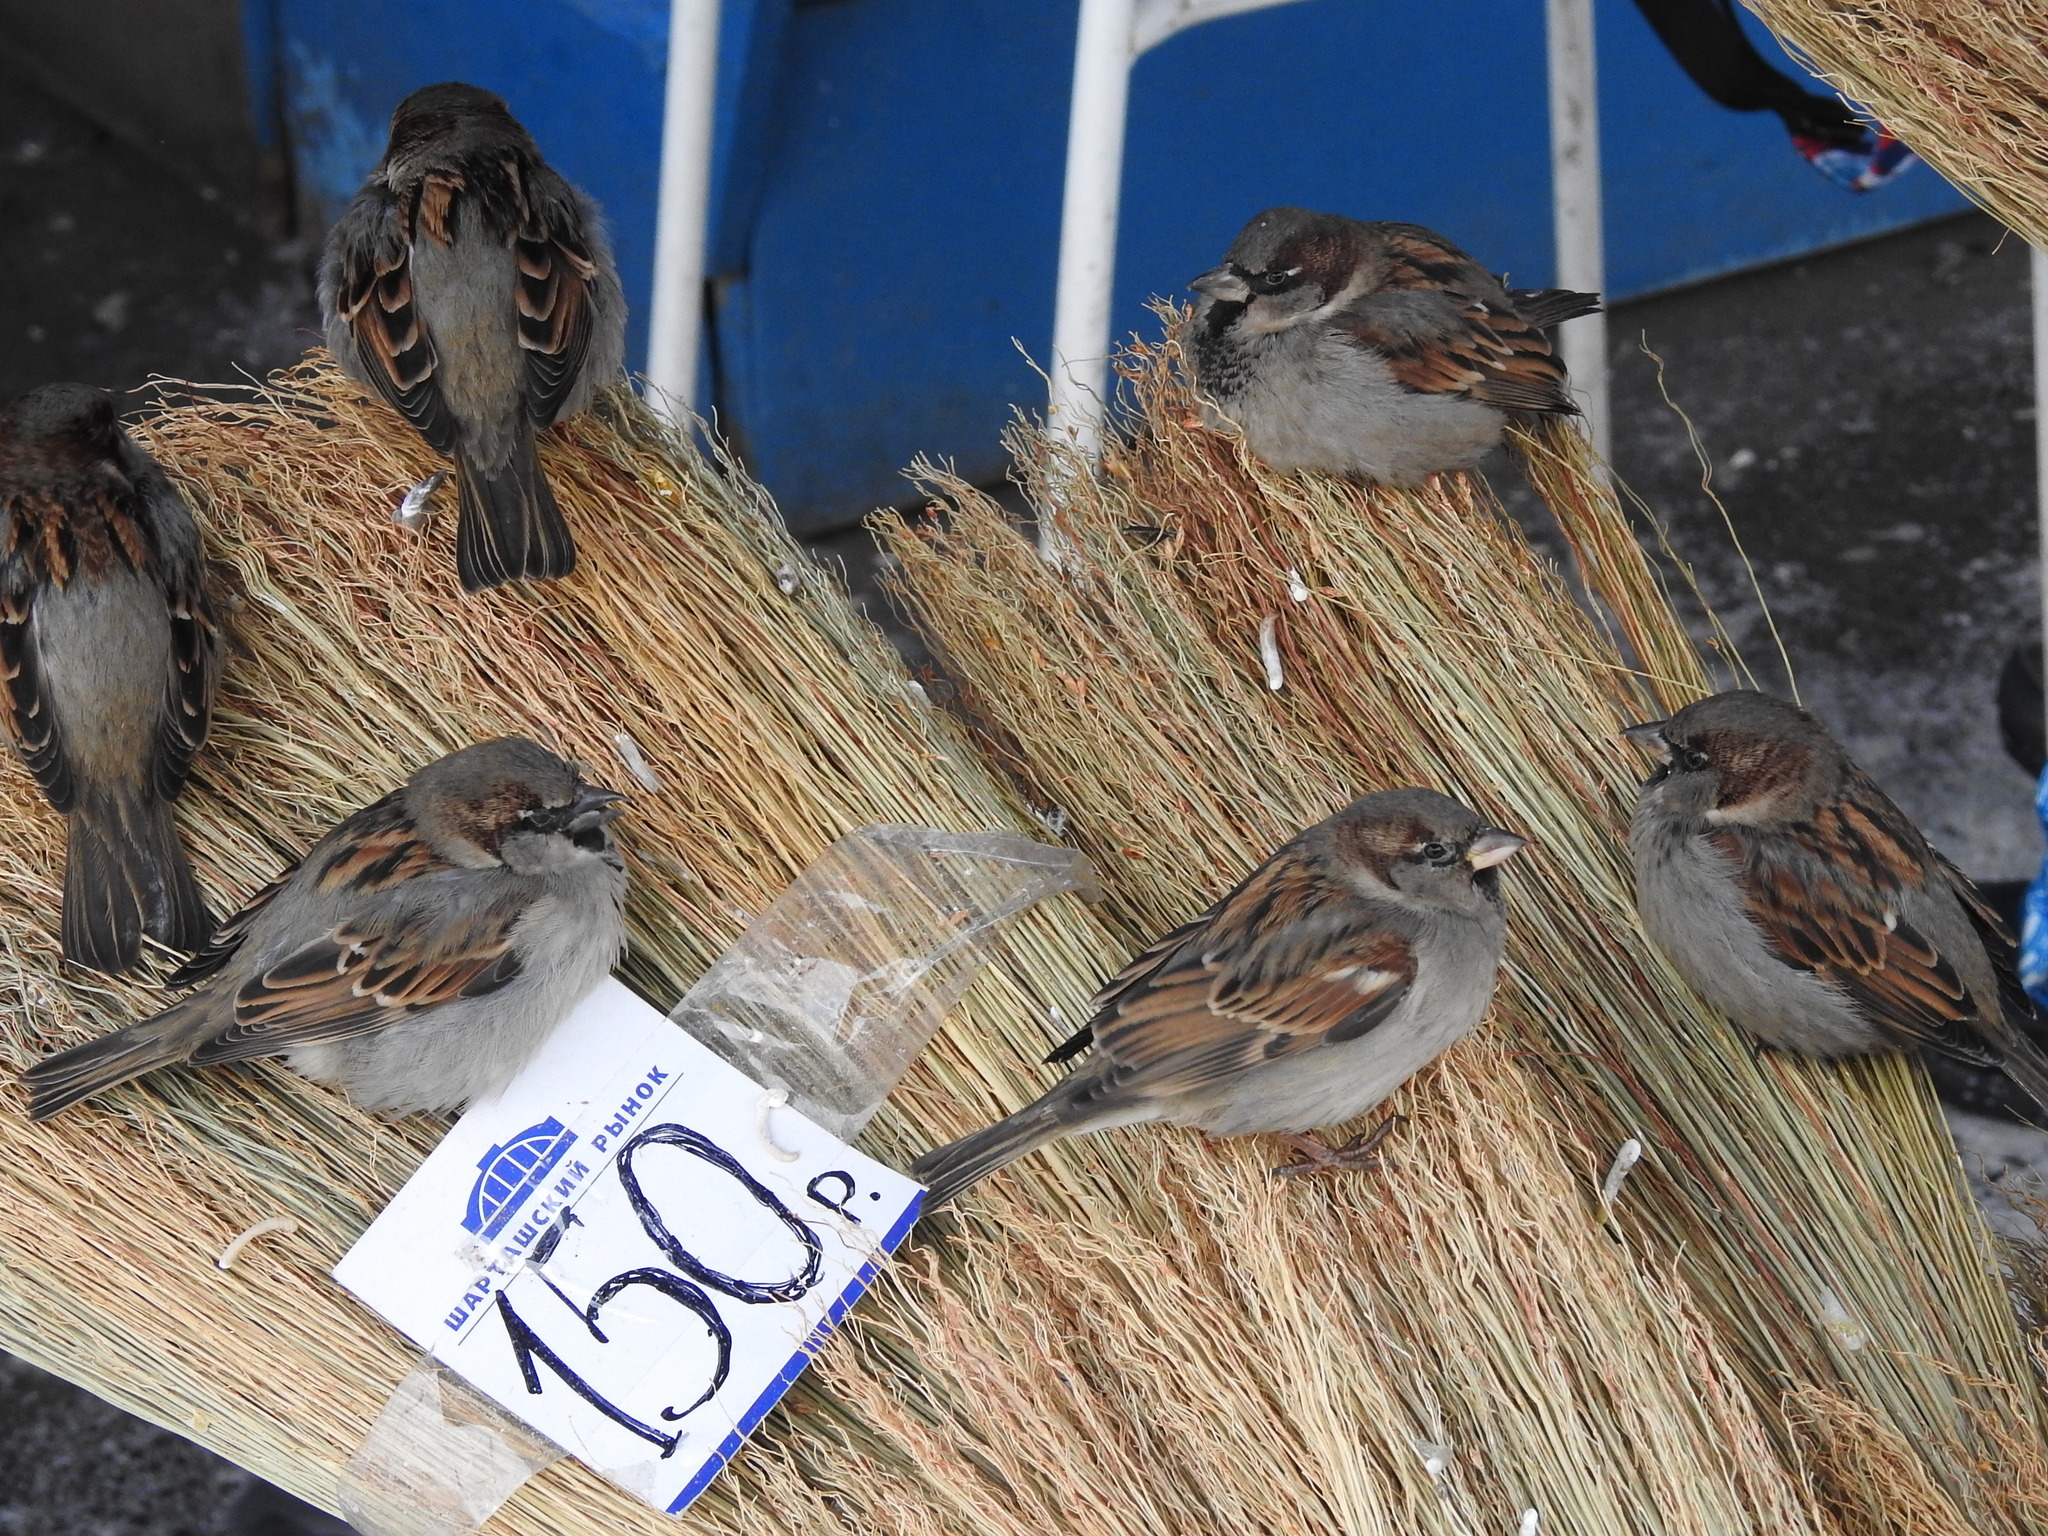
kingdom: Animalia
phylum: Chordata
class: Aves
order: Passeriformes
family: Passeridae
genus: Passer
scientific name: Passer domesticus
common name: House sparrow
